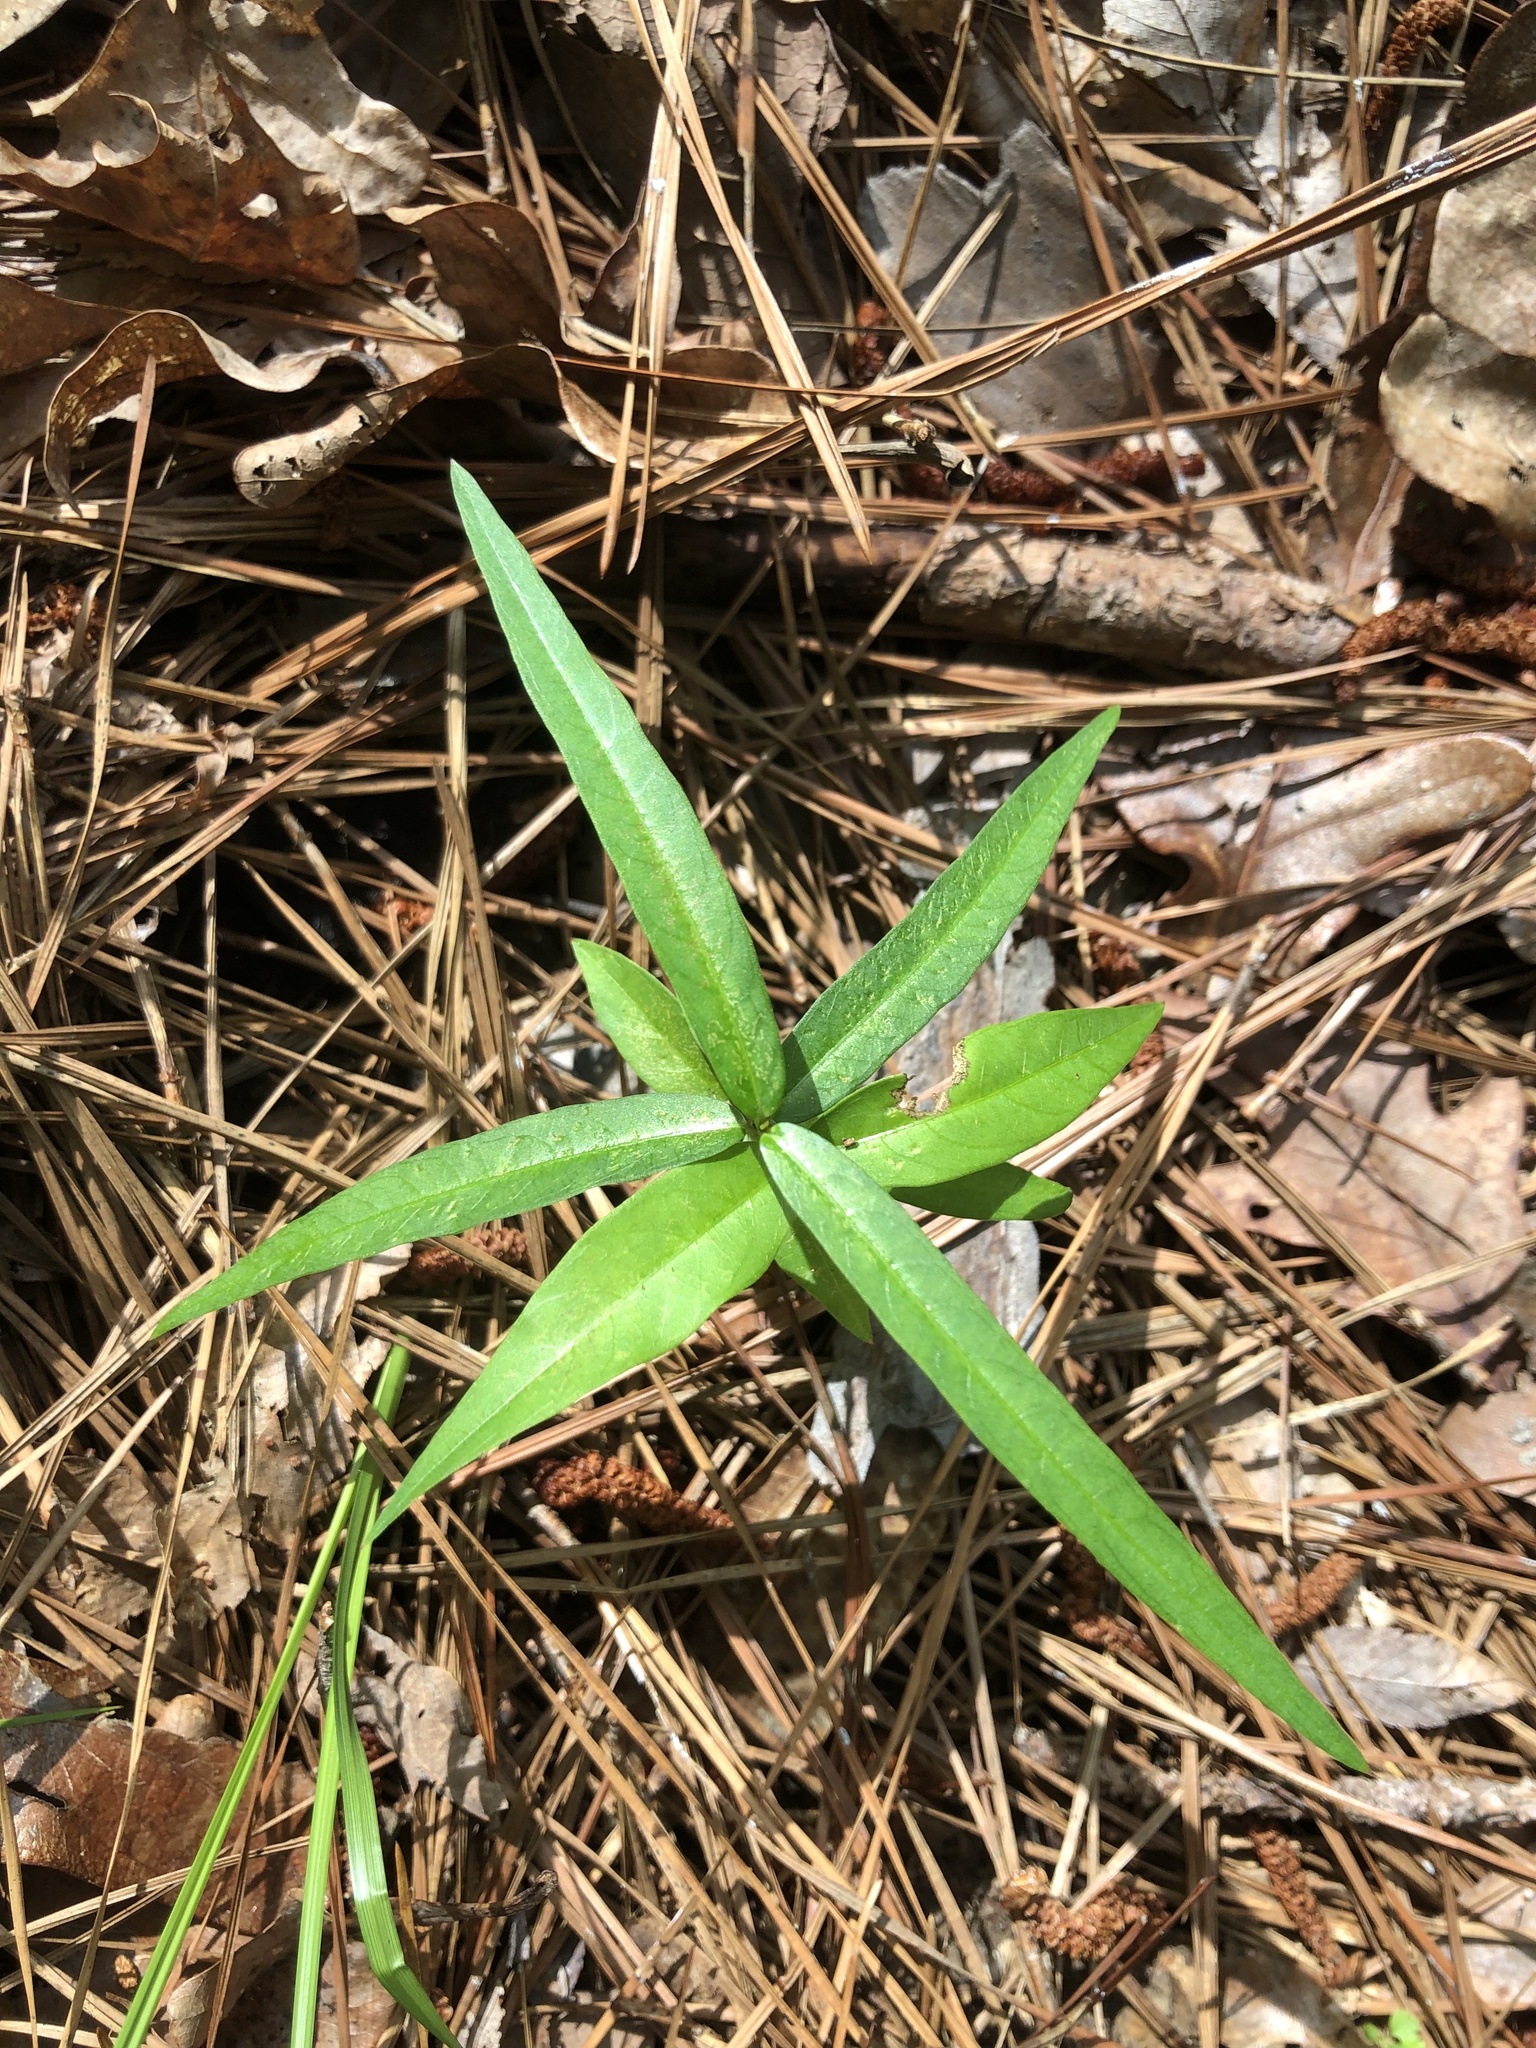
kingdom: Plantae
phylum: Tracheophyta
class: Magnoliopsida
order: Gentianales
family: Apocynaceae
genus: Thyrsanthella
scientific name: Thyrsanthella difformis
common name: Climbing dogbane
